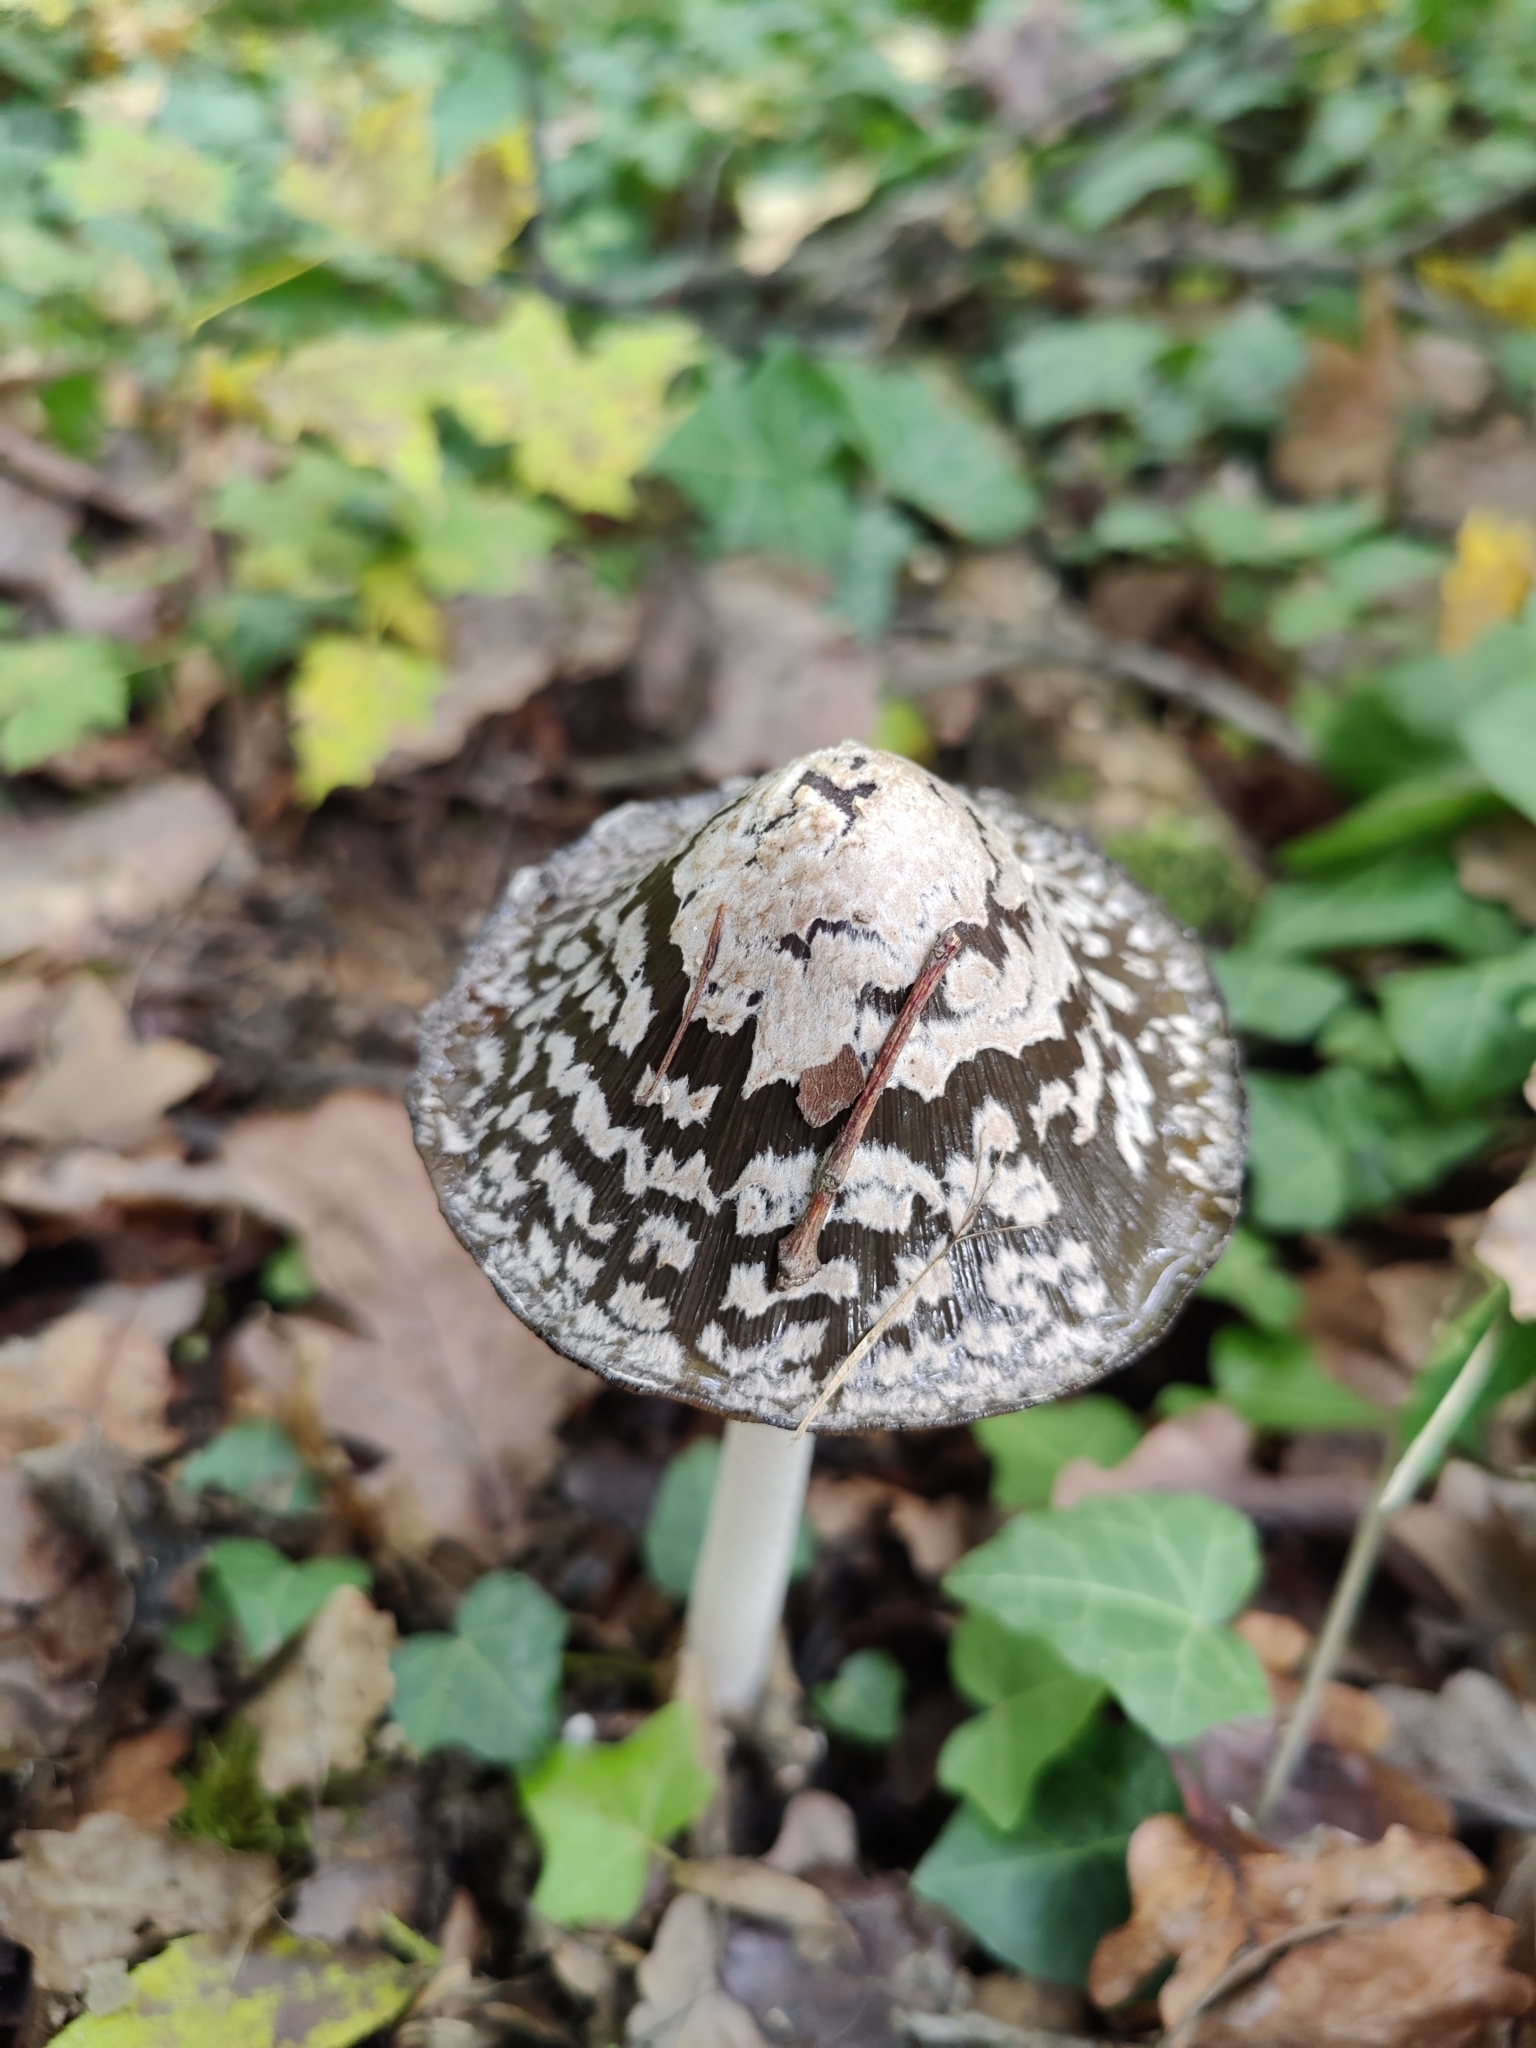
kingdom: Fungi
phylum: Basidiomycota
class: Agaricomycetes
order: Agaricales
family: Psathyrellaceae
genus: Coprinopsis
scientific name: Coprinopsis picacea
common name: Magpie inkcap
